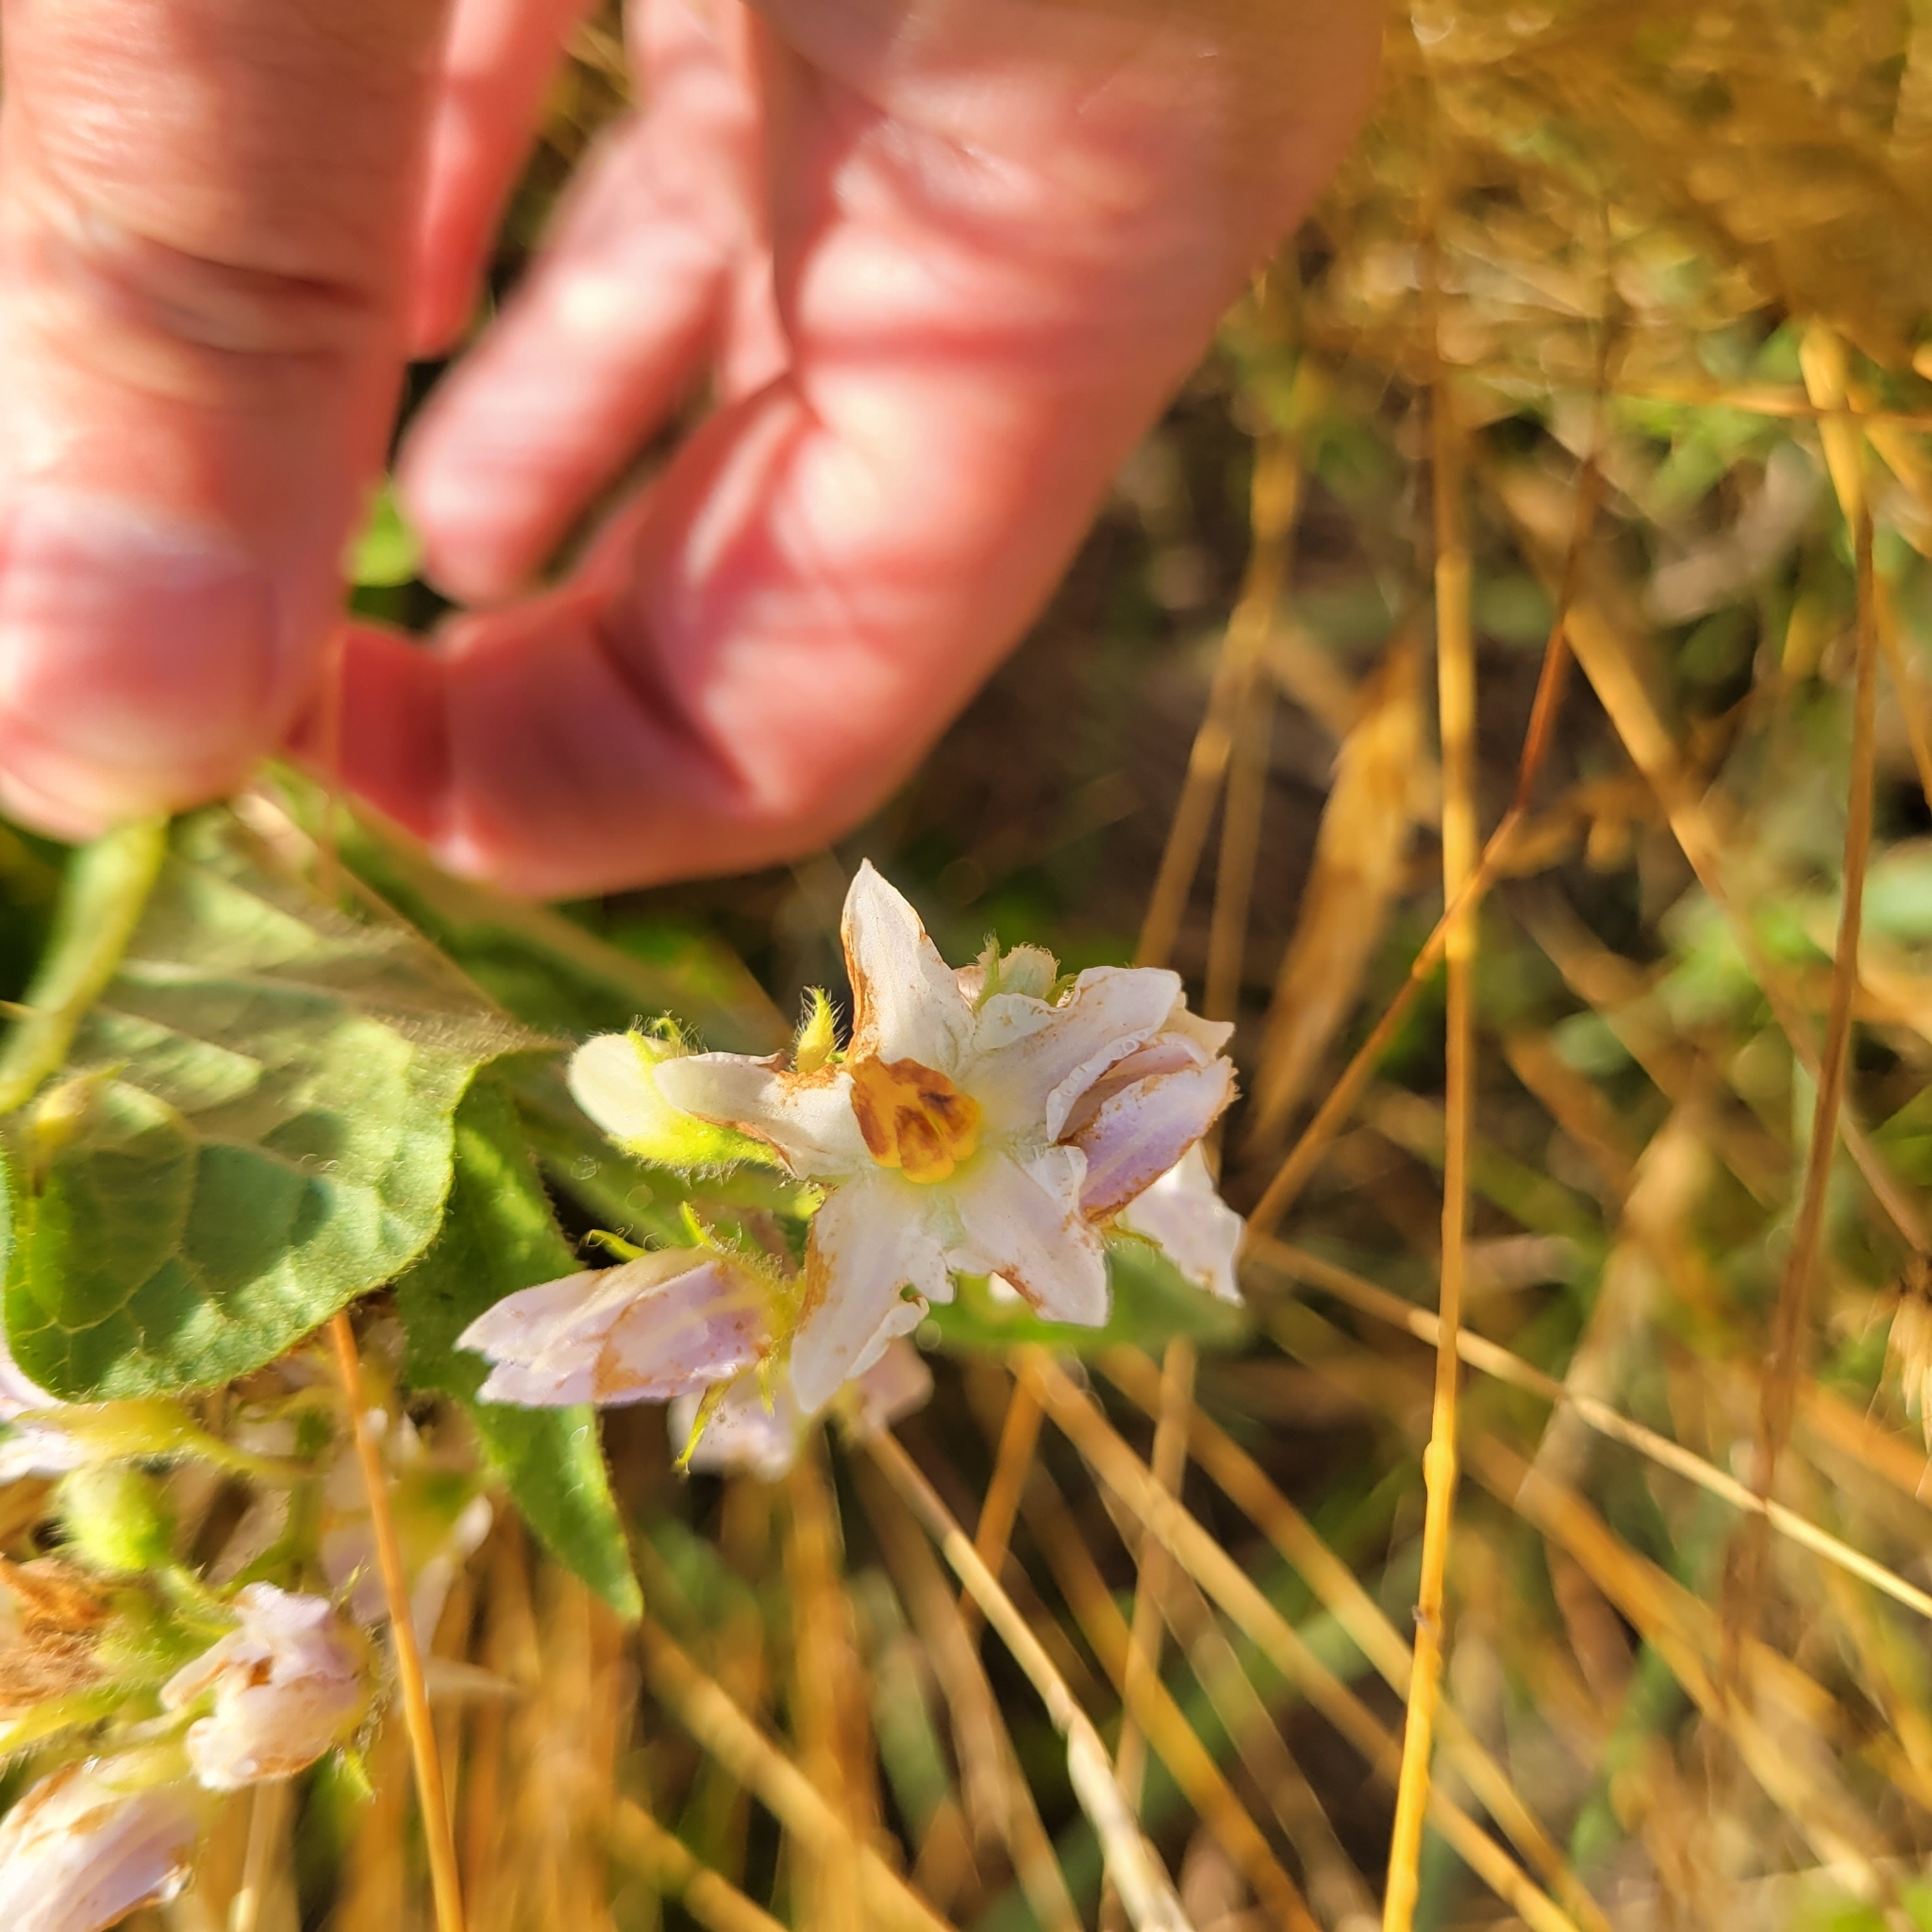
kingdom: Plantae
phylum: Tracheophyta
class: Magnoliopsida
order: Solanales
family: Solanaceae
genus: Solanum
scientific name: Solanum carolinense
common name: Horse-nettle
